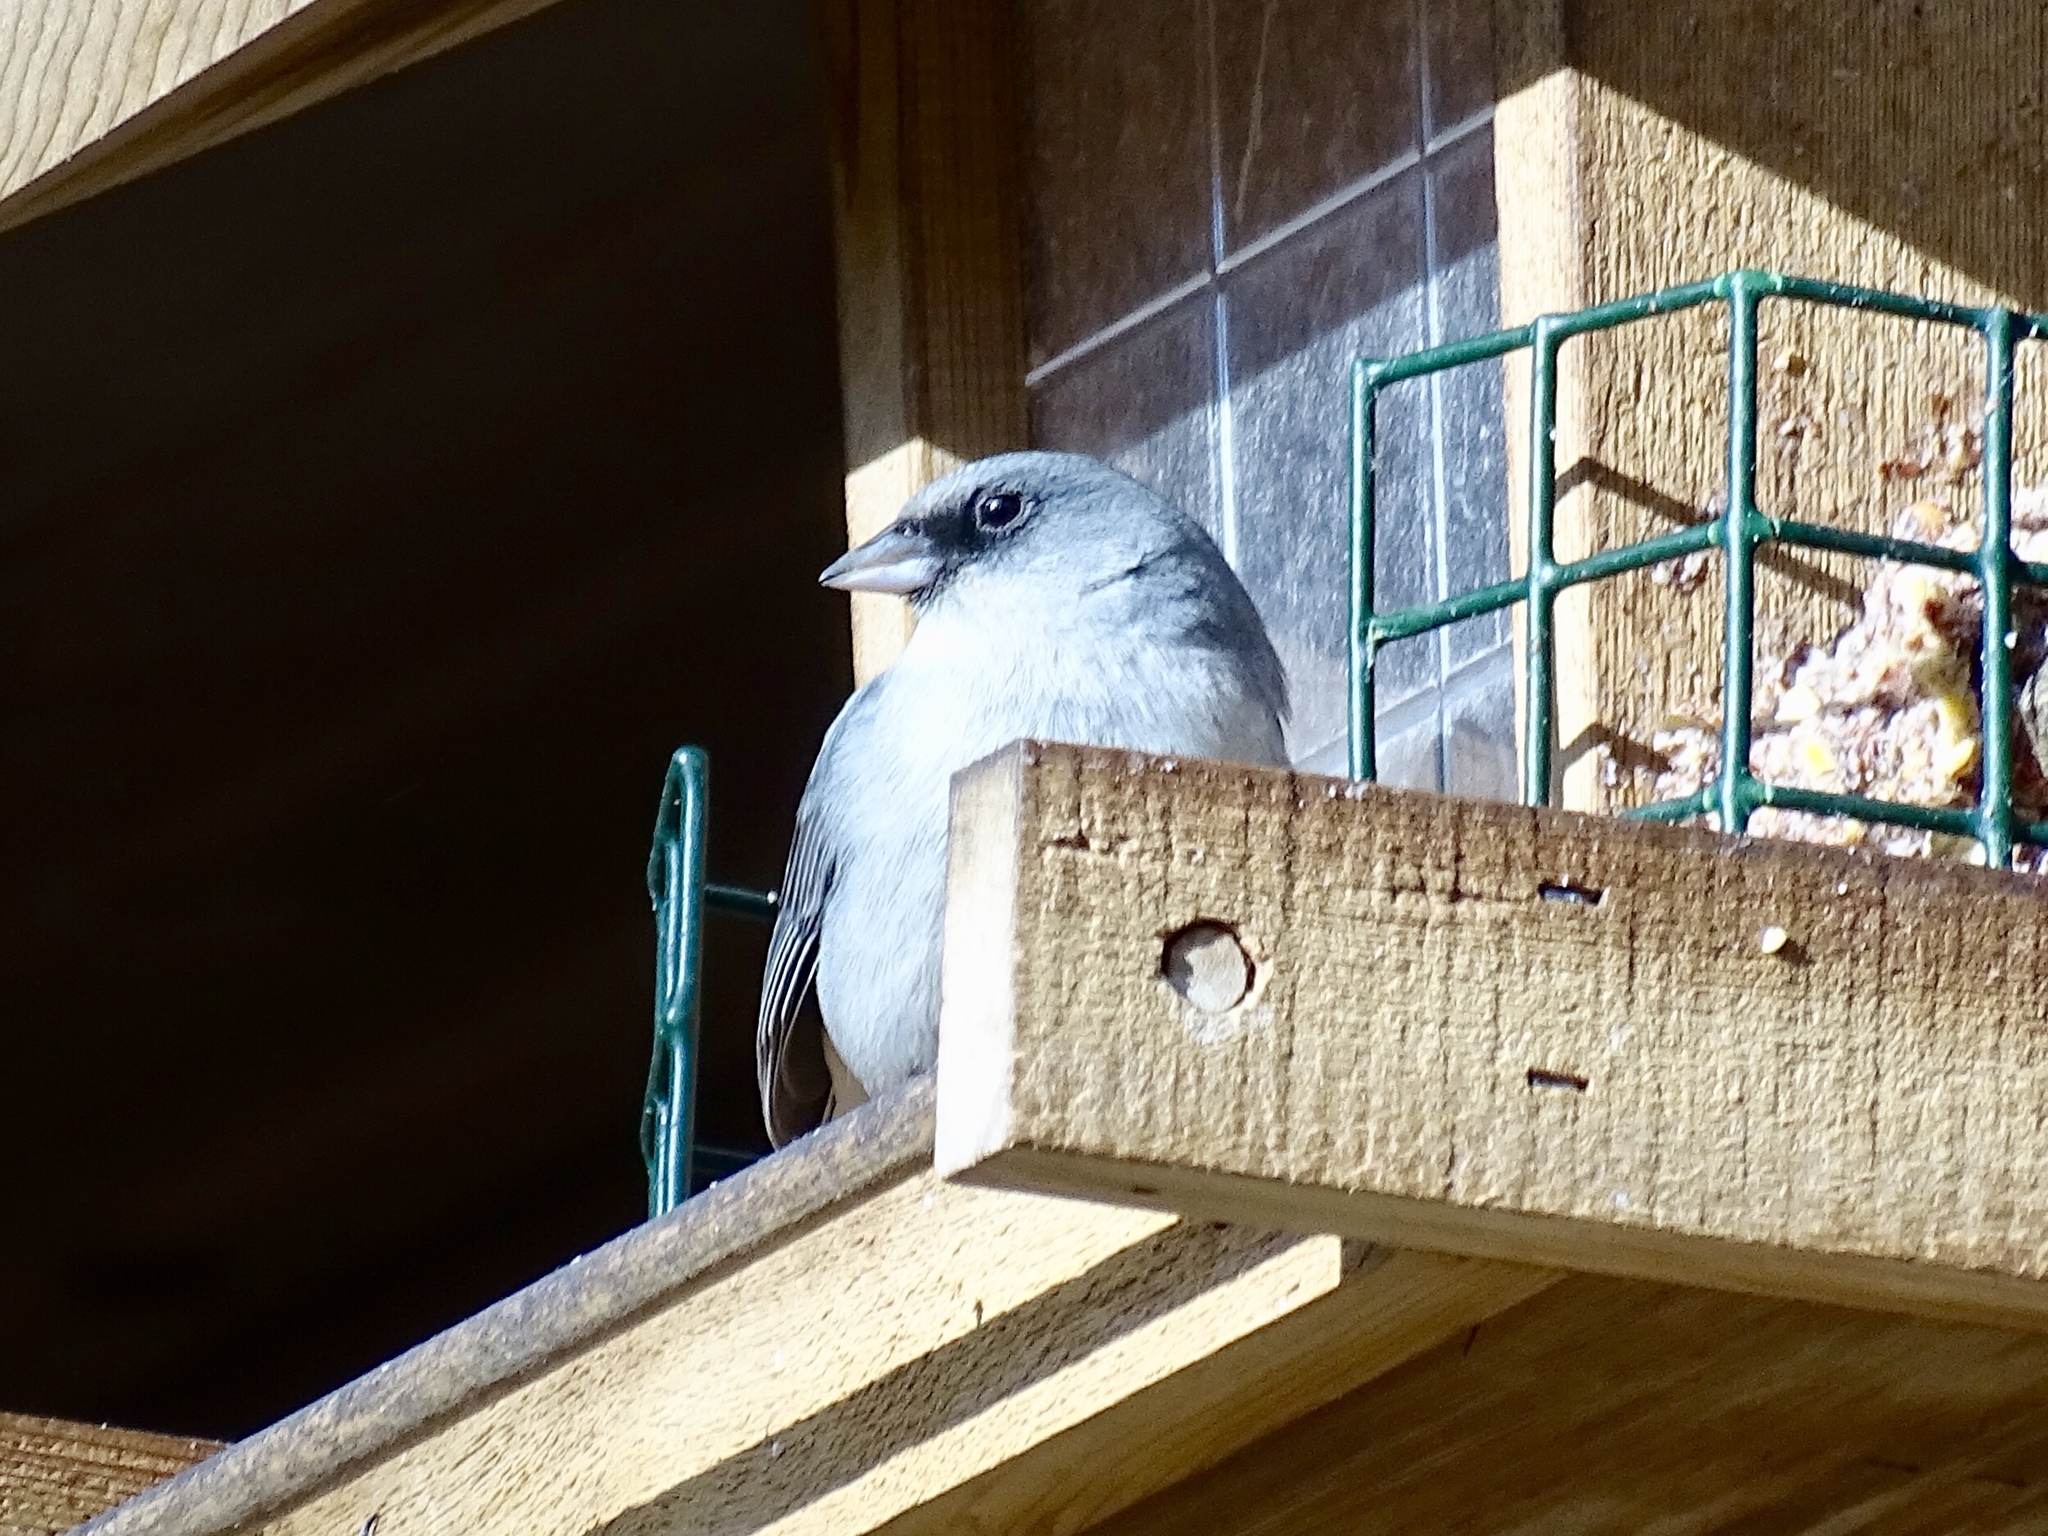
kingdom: Animalia
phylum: Chordata
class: Aves
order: Passeriformes
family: Passerellidae
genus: Junco
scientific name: Junco hyemalis
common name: Dark-eyed junco
